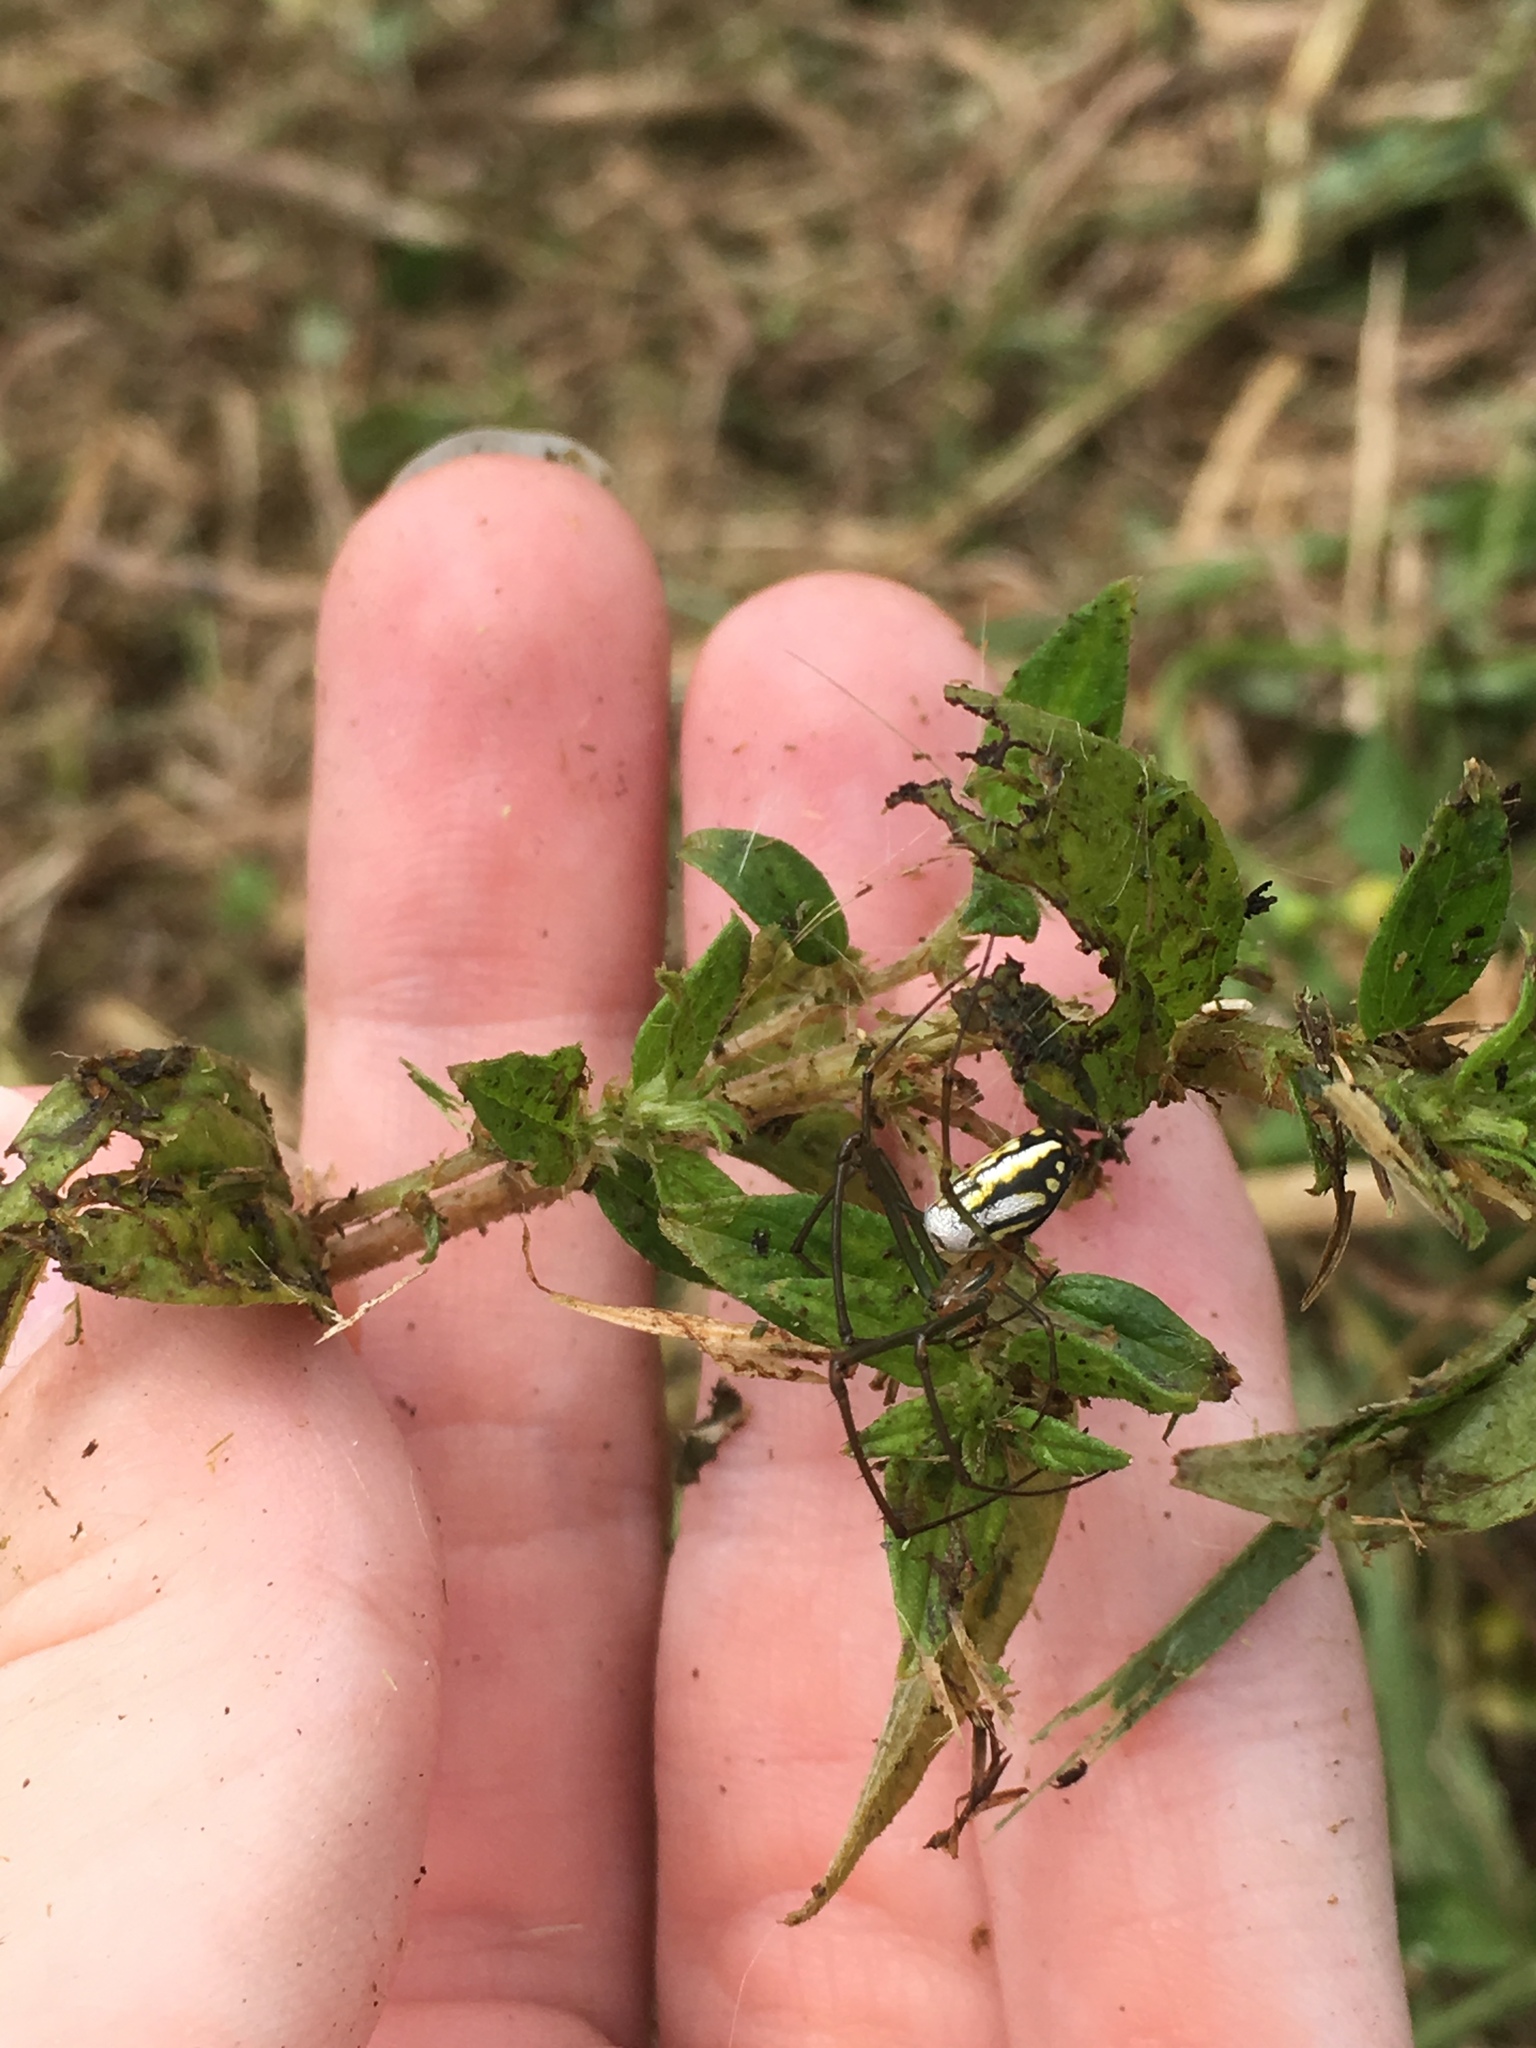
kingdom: Animalia
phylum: Arthropoda
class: Arachnida
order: Araneae
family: Tetragnathidae
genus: Leucauge
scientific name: Leucauge argyra
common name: Longjawed orb weavers
